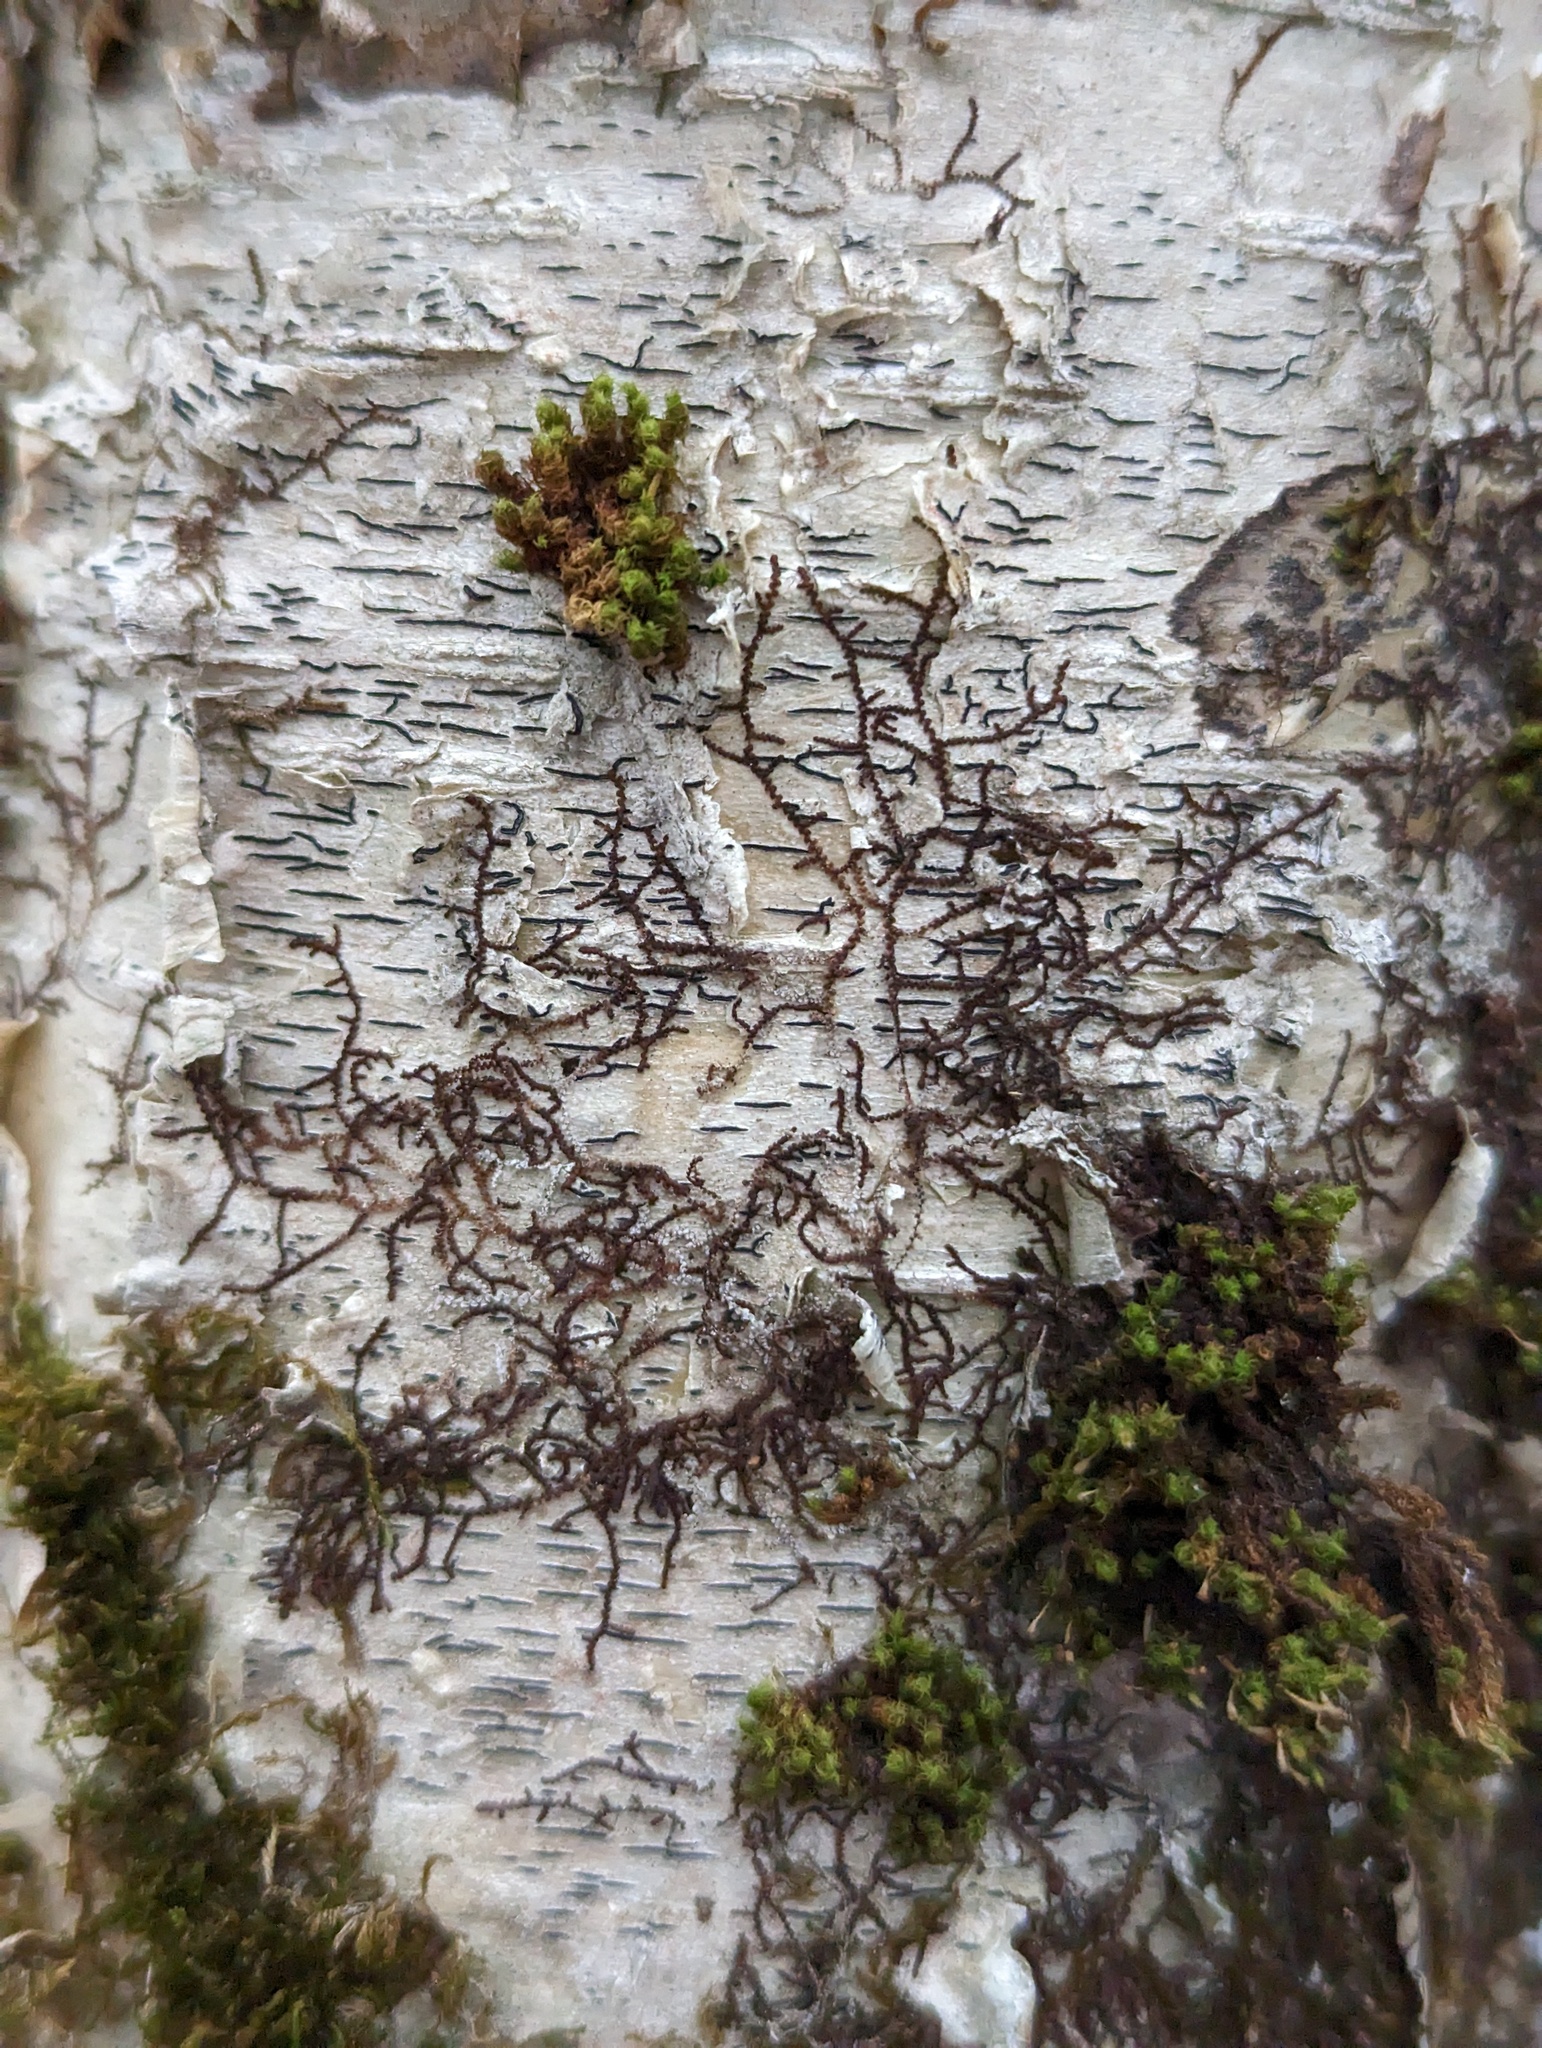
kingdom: Plantae
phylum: Marchantiophyta
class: Jungermanniopsida
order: Porellales
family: Frullaniaceae
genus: Frullania
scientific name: Frullania eboracensis
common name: New york scalewort
